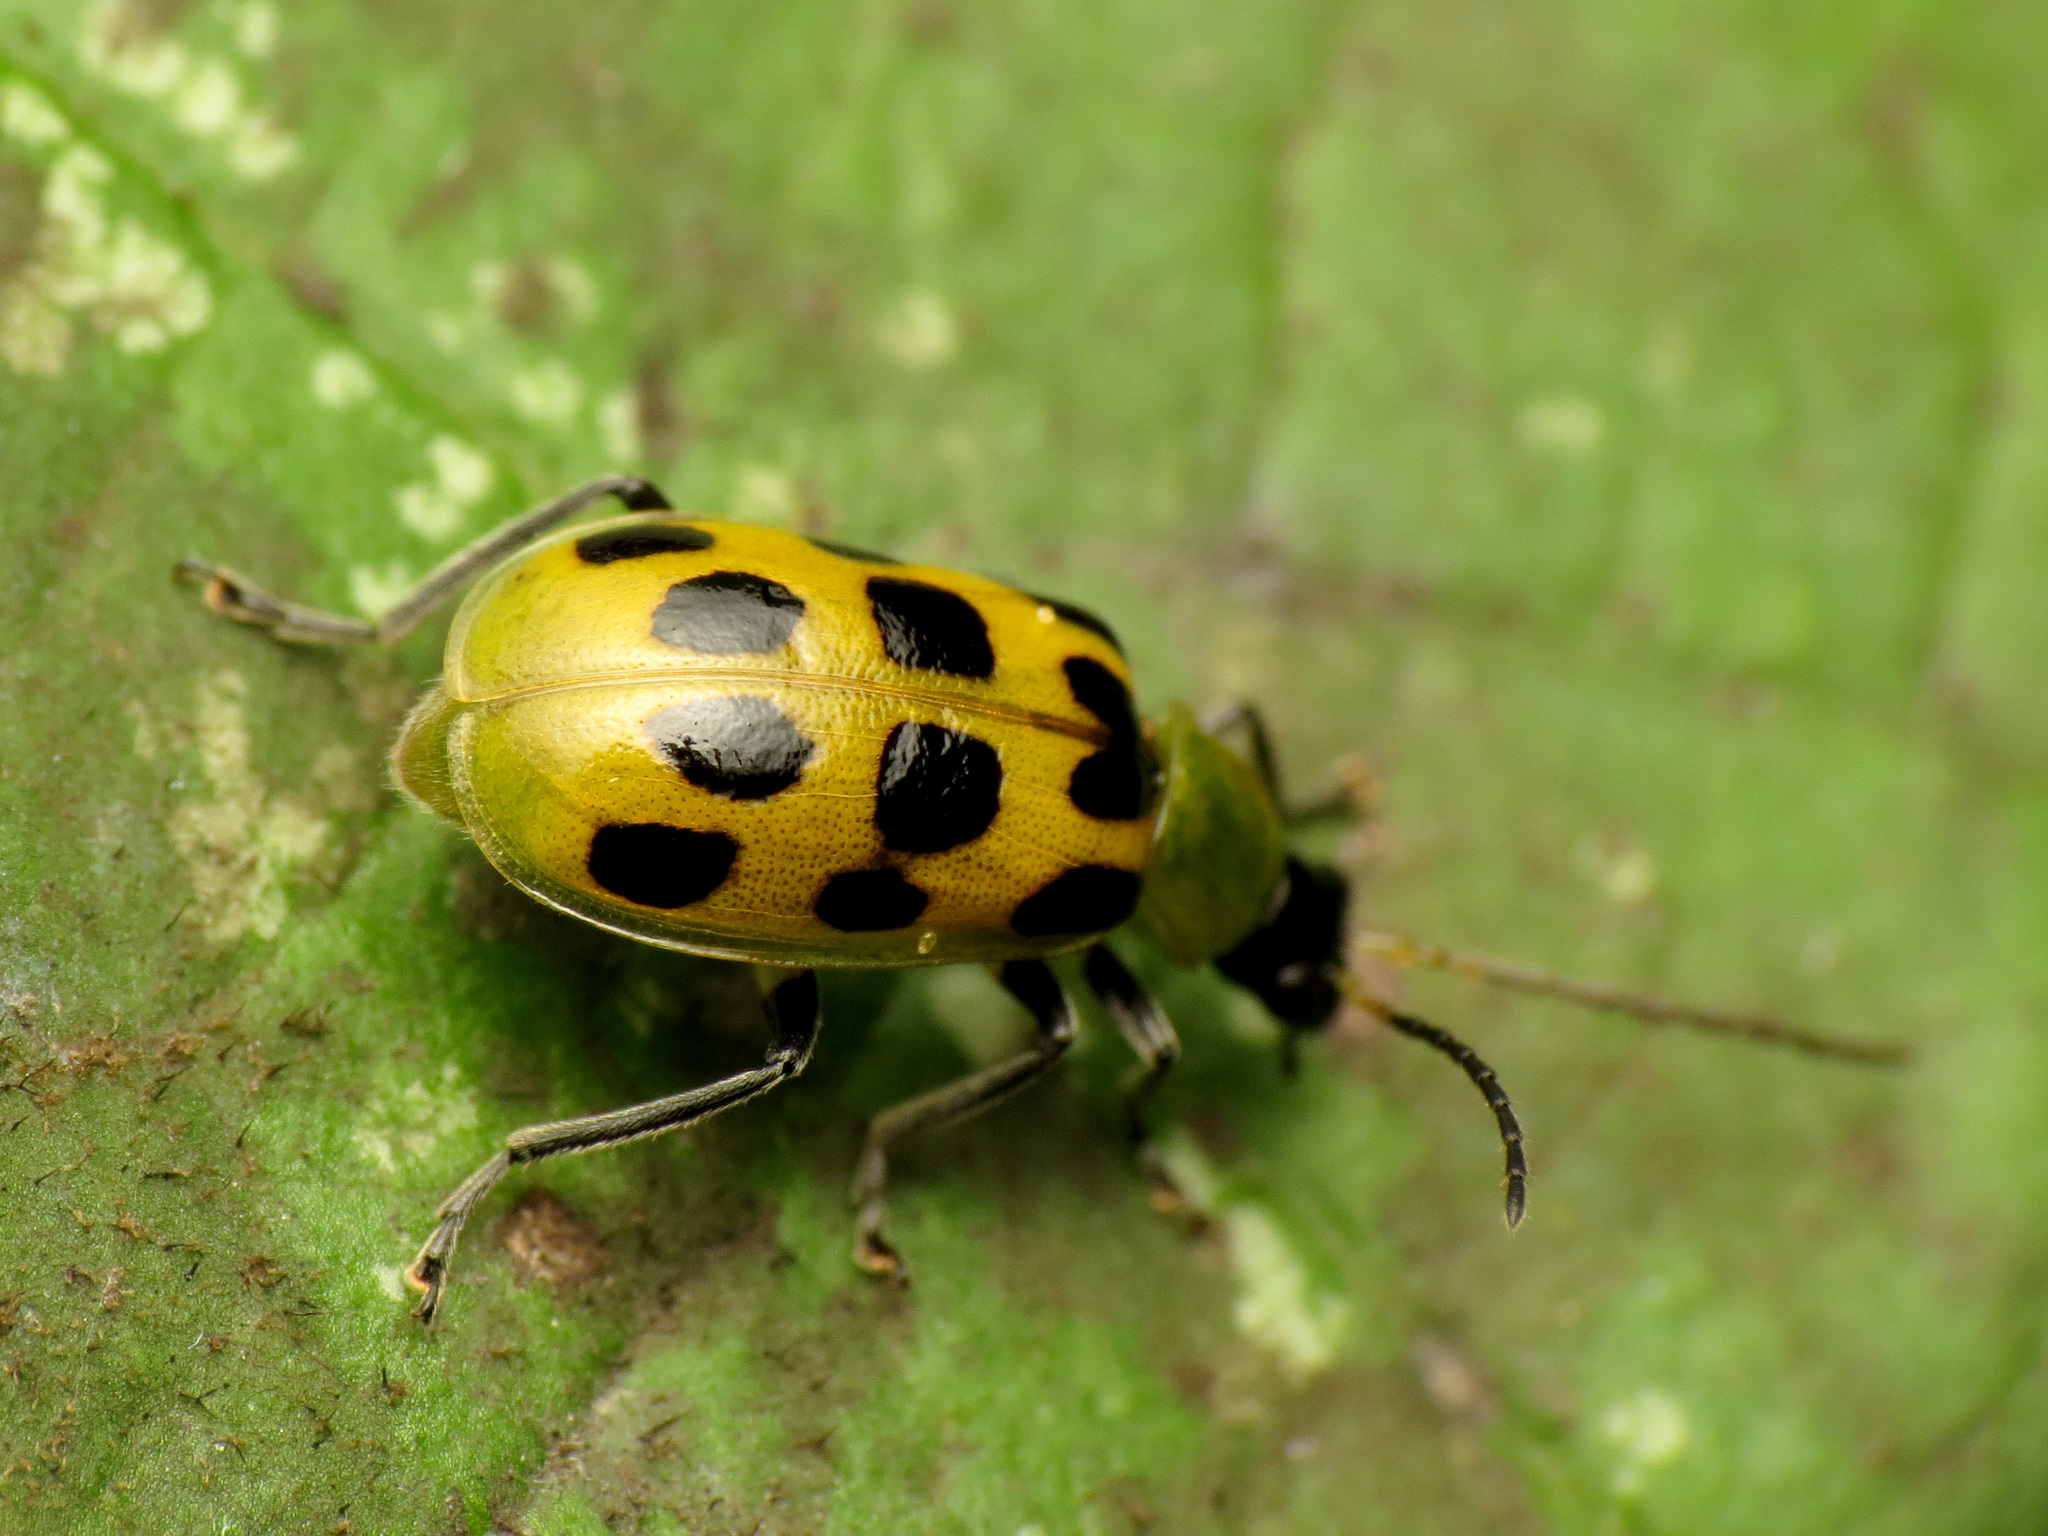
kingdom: Animalia
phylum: Arthropoda
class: Insecta
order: Coleoptera
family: Chrysomelidae
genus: Diabrotica
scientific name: Diabrotica undecimpunctata
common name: Spotted cucumber beetle
